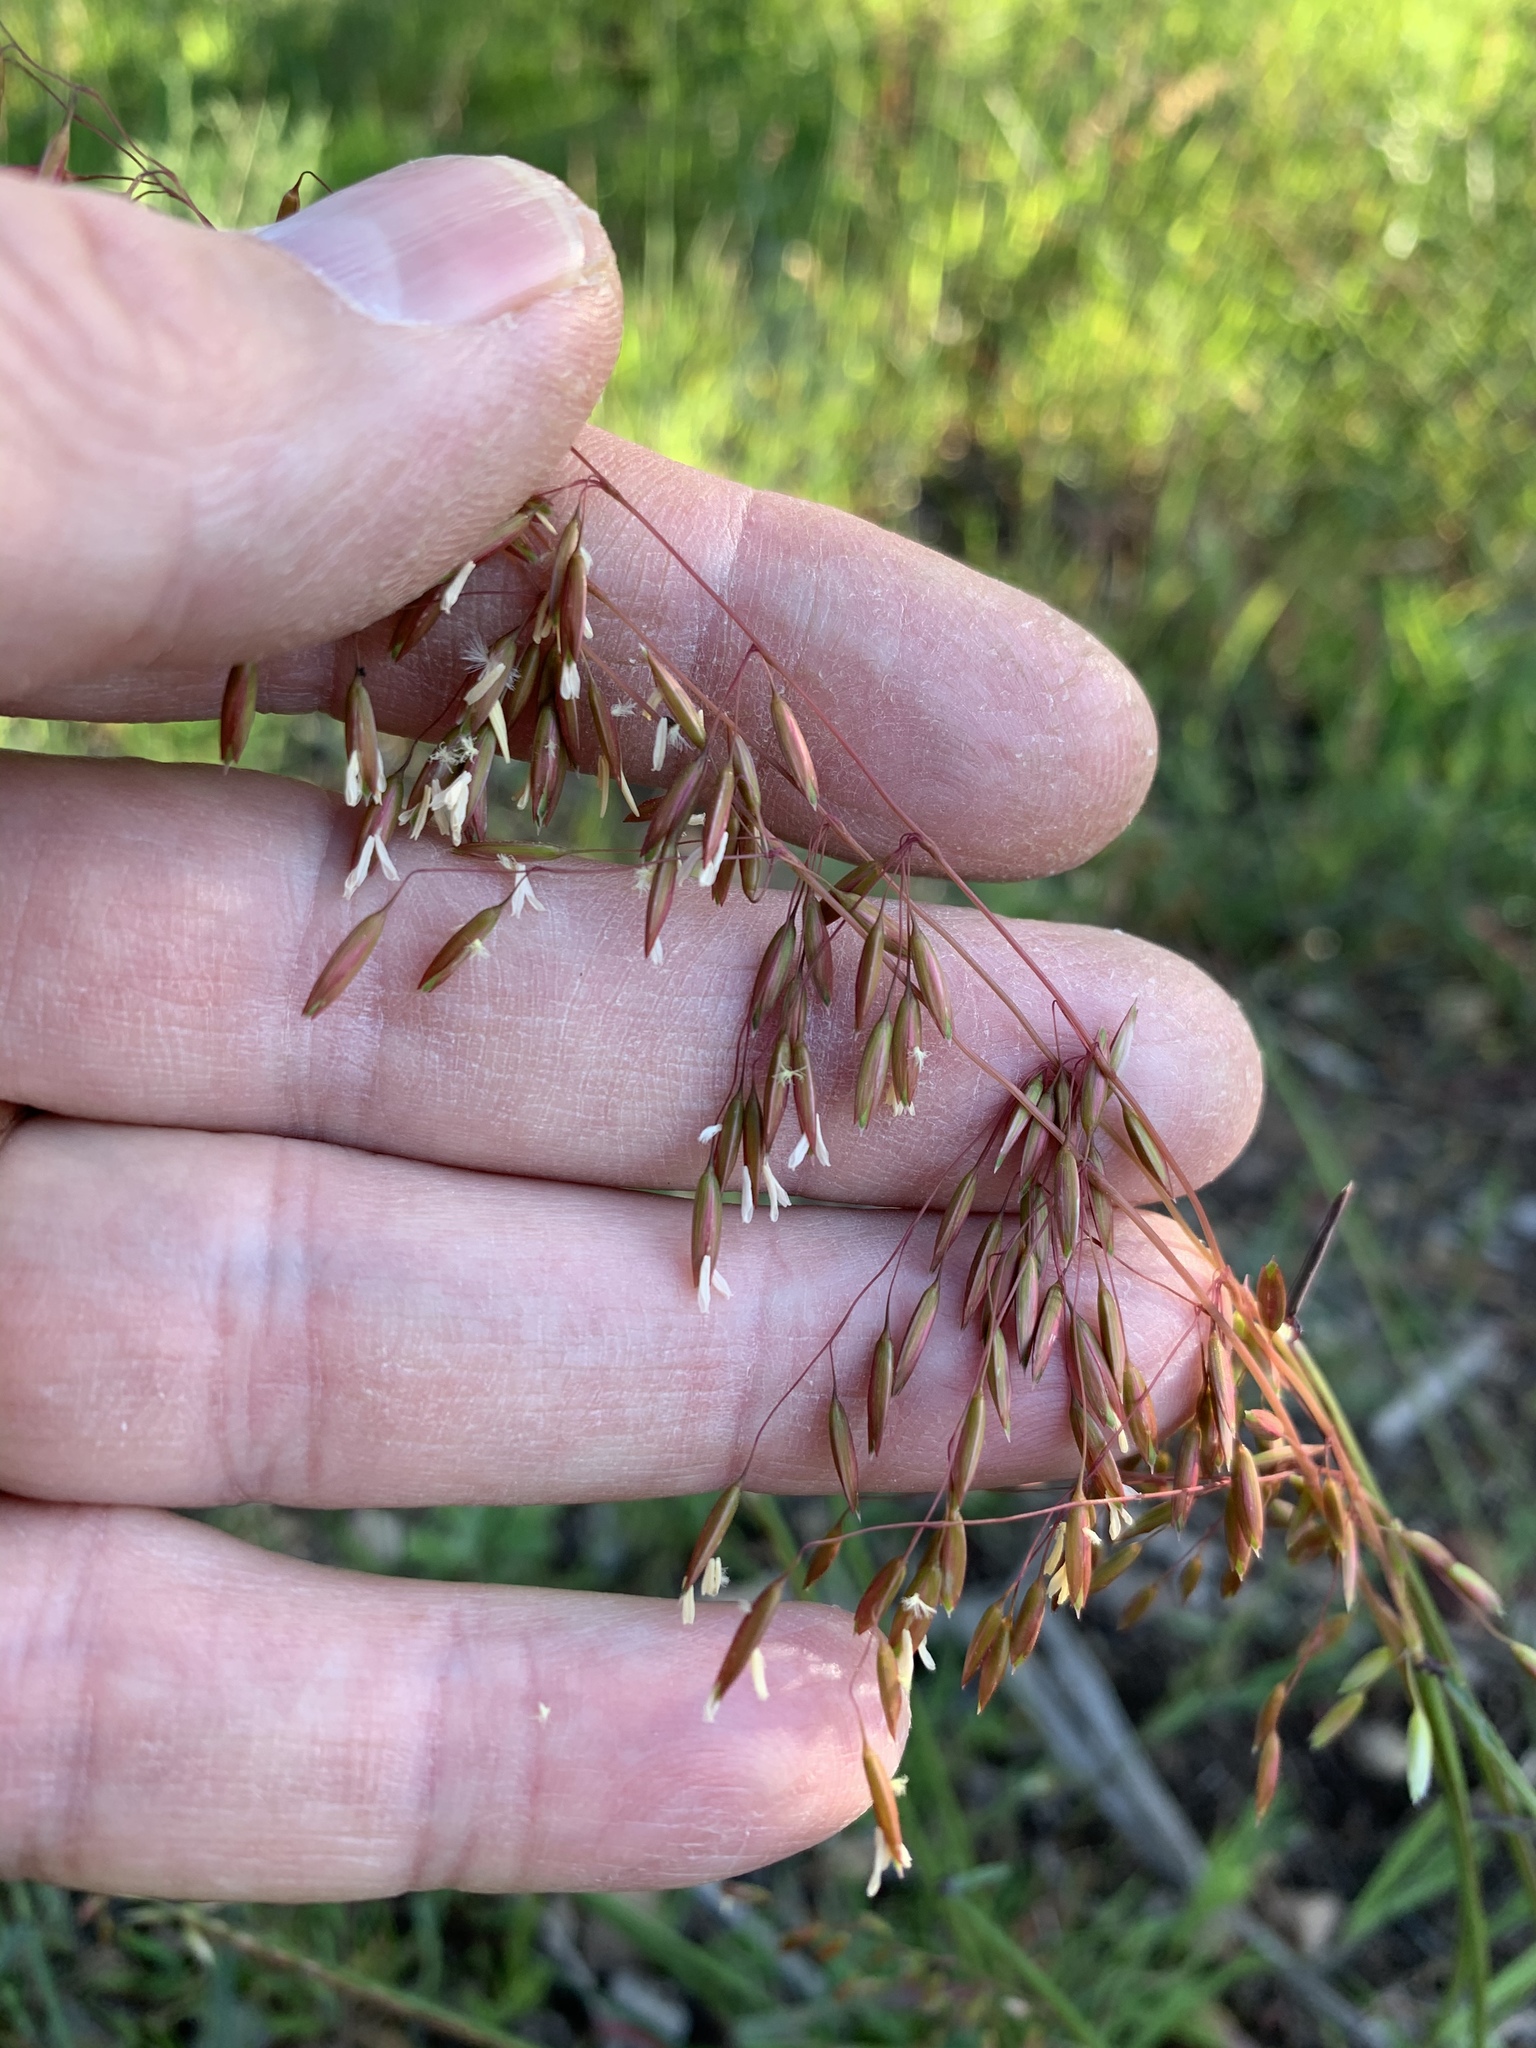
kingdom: Plantae
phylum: Tracheophyta
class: Liliopsida
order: Poales
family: Poaceae
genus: Ehrharta
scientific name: Ehrharta calycina
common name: Perennial veldtgrass
